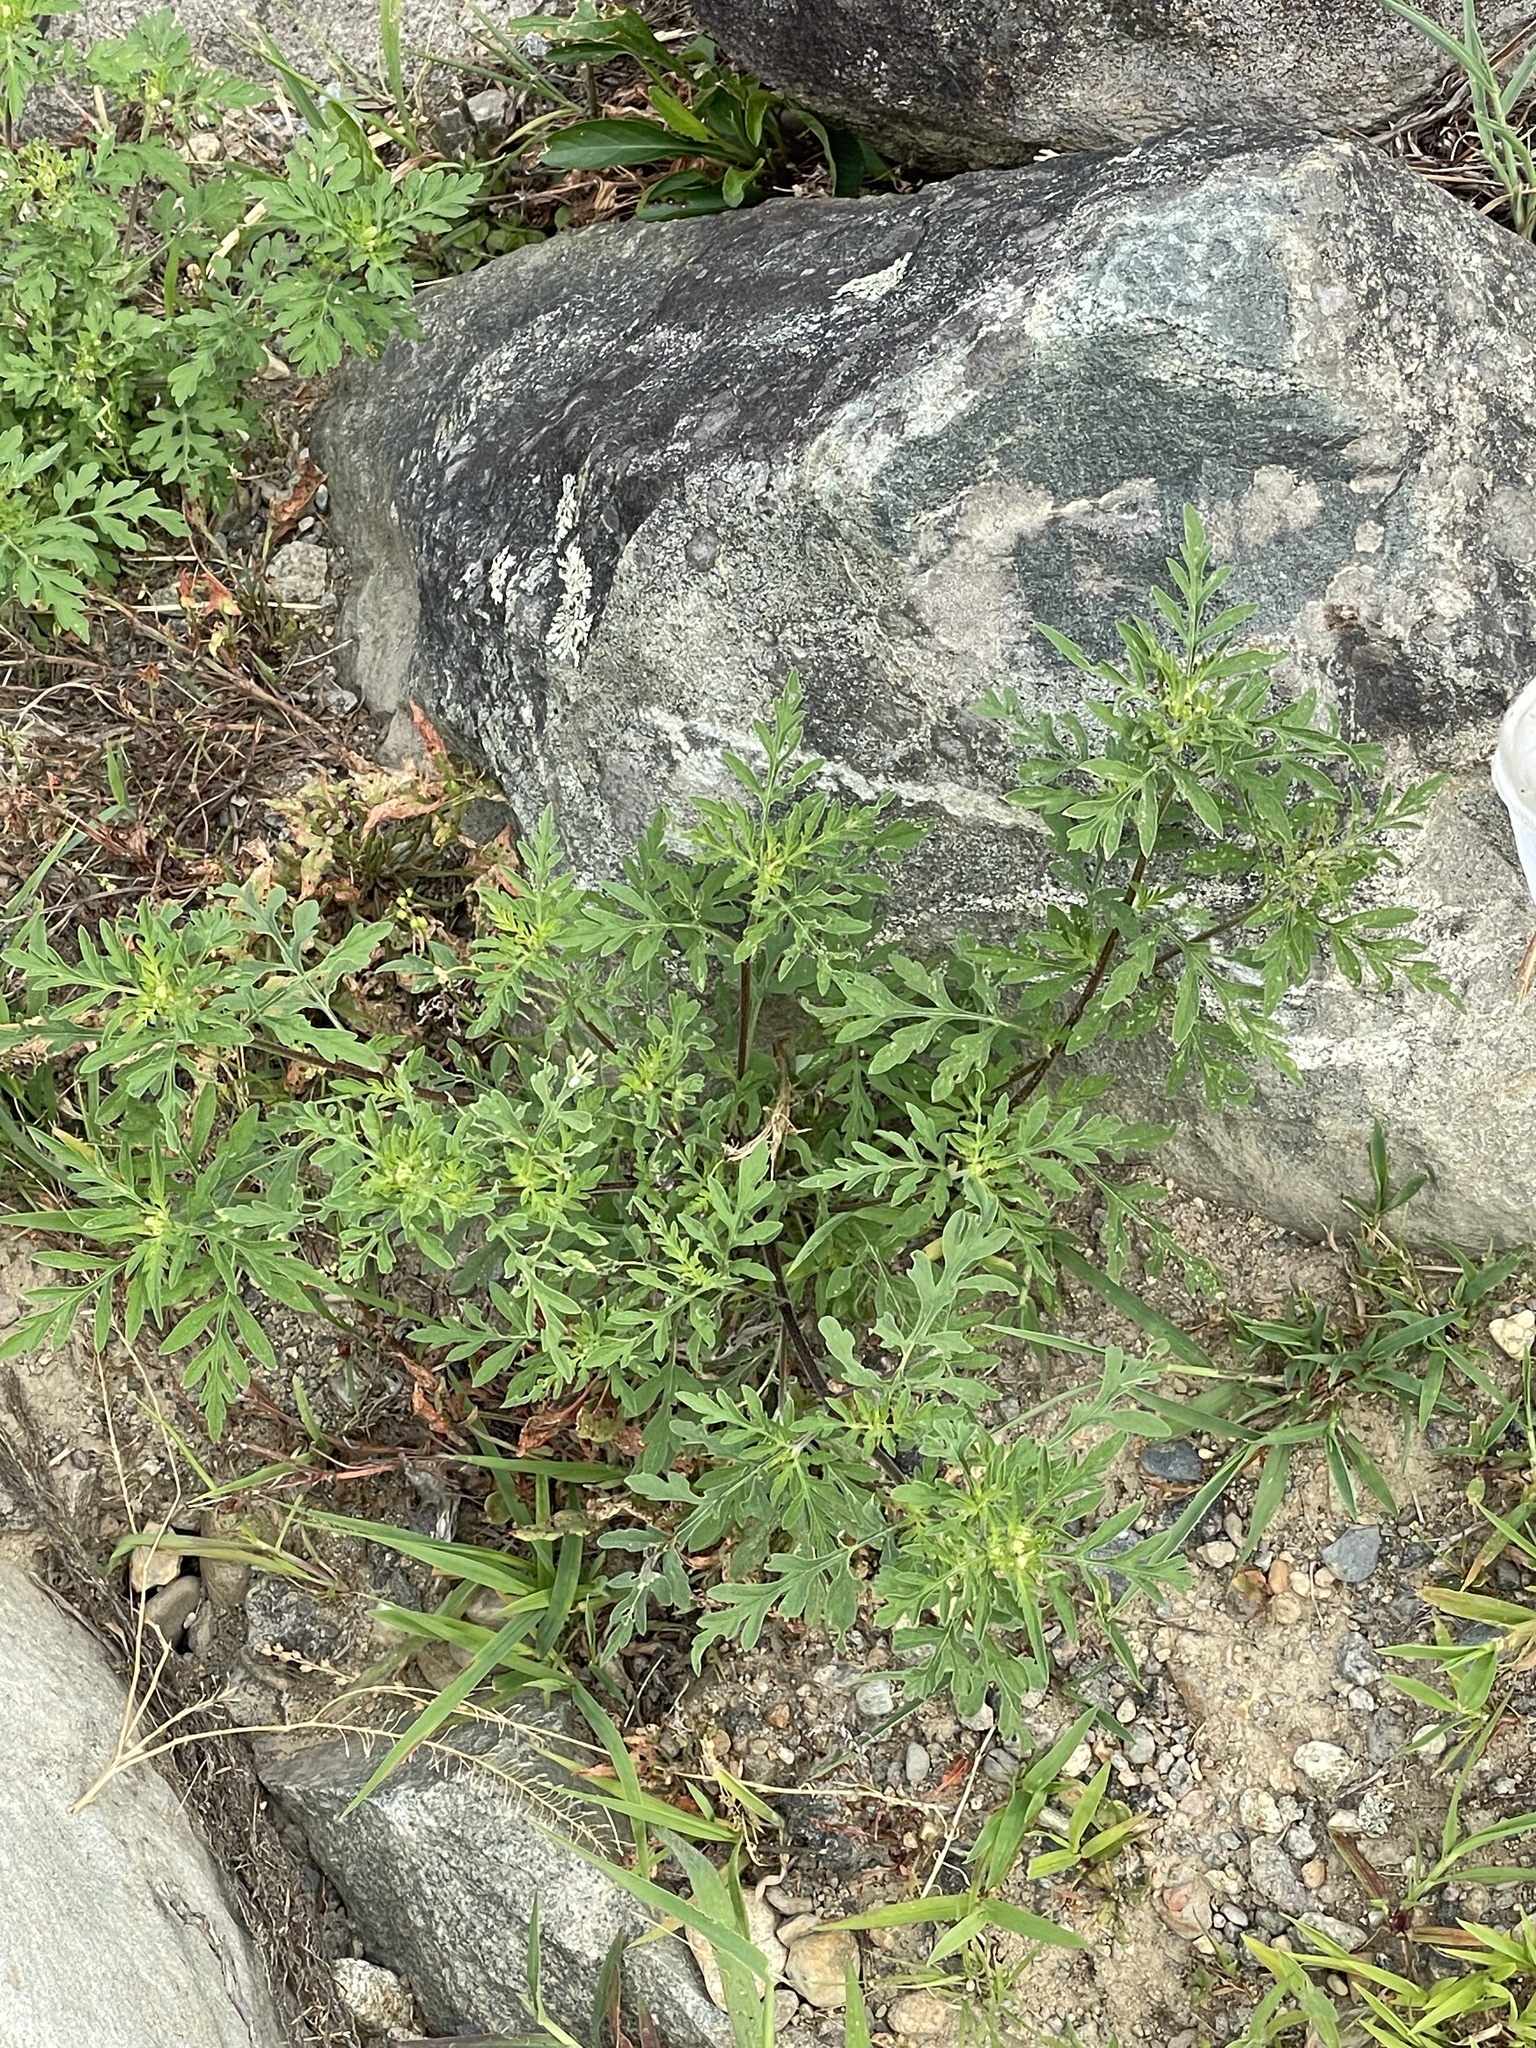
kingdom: Plantae
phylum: Tracheophyta
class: Magnoliopsida
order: Asterales
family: Asteraceae
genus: Ambrosia
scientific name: Ambrosia artemisiifolia
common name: Annual ragweed
